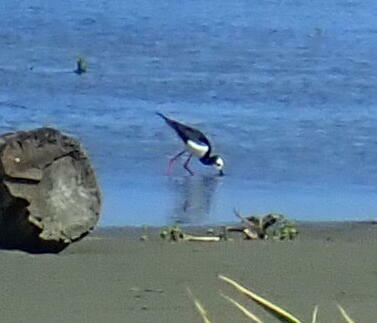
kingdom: Animalia
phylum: Chordata
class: Aves
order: Charadriiformes
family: Recurvirostridae
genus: Himantopus
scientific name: Himantopus
